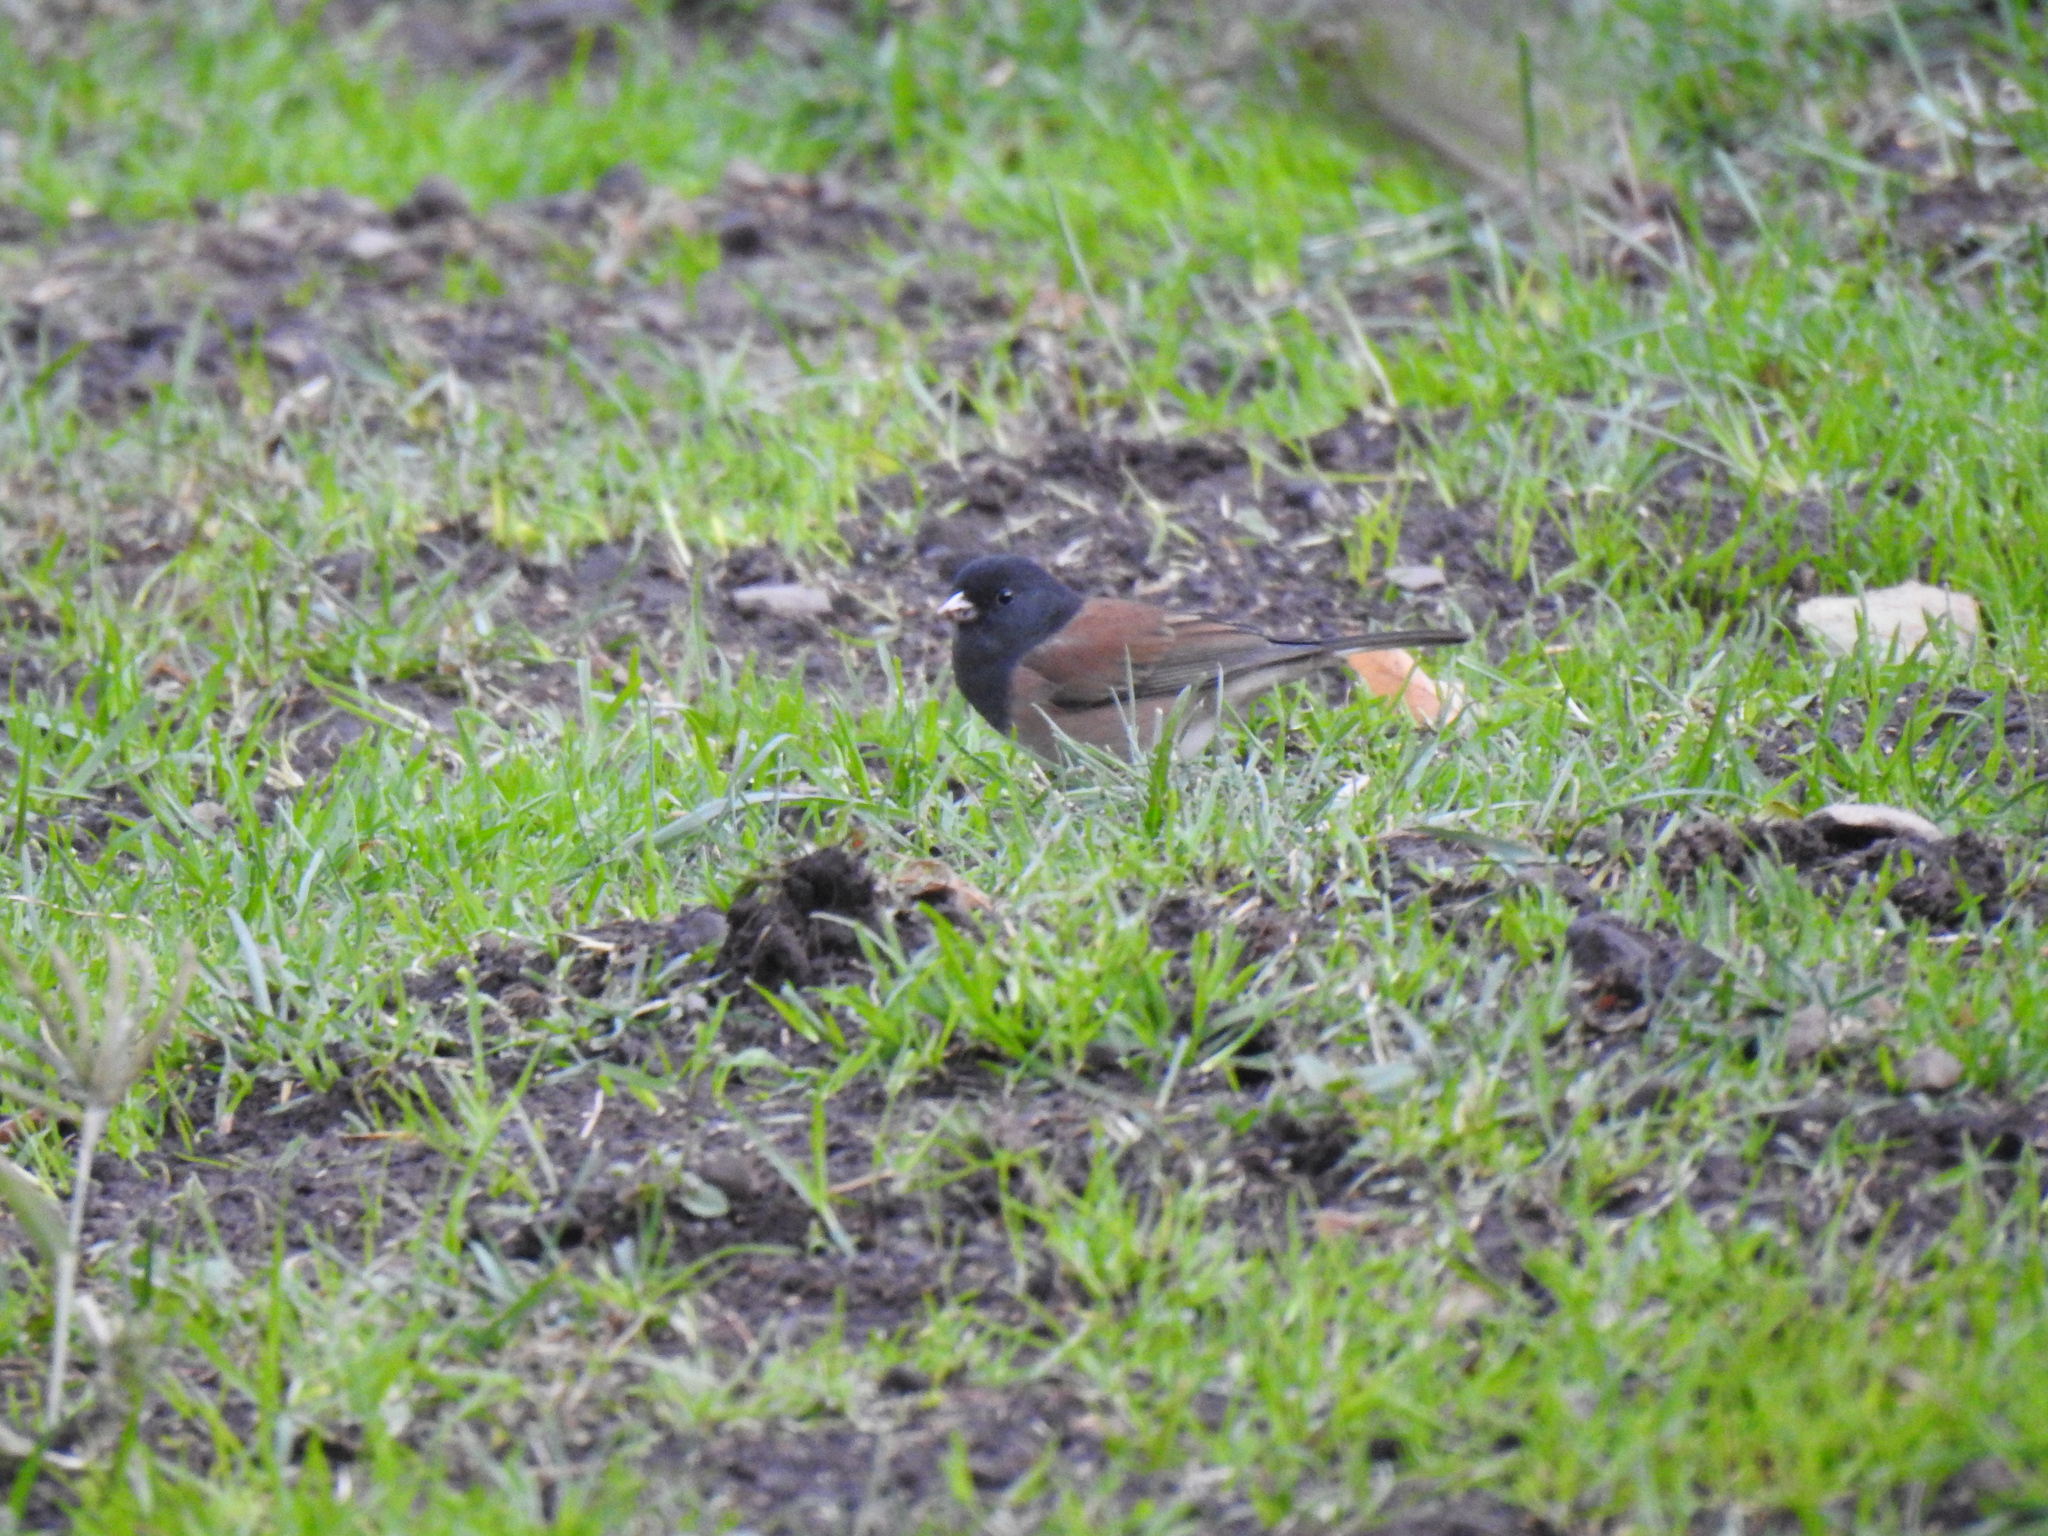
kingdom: Animalia
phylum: Chordata
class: Aves
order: Passeriformes
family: Passerellidae
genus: Junco
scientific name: Junco hyemalis
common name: Dark-eyed junco
